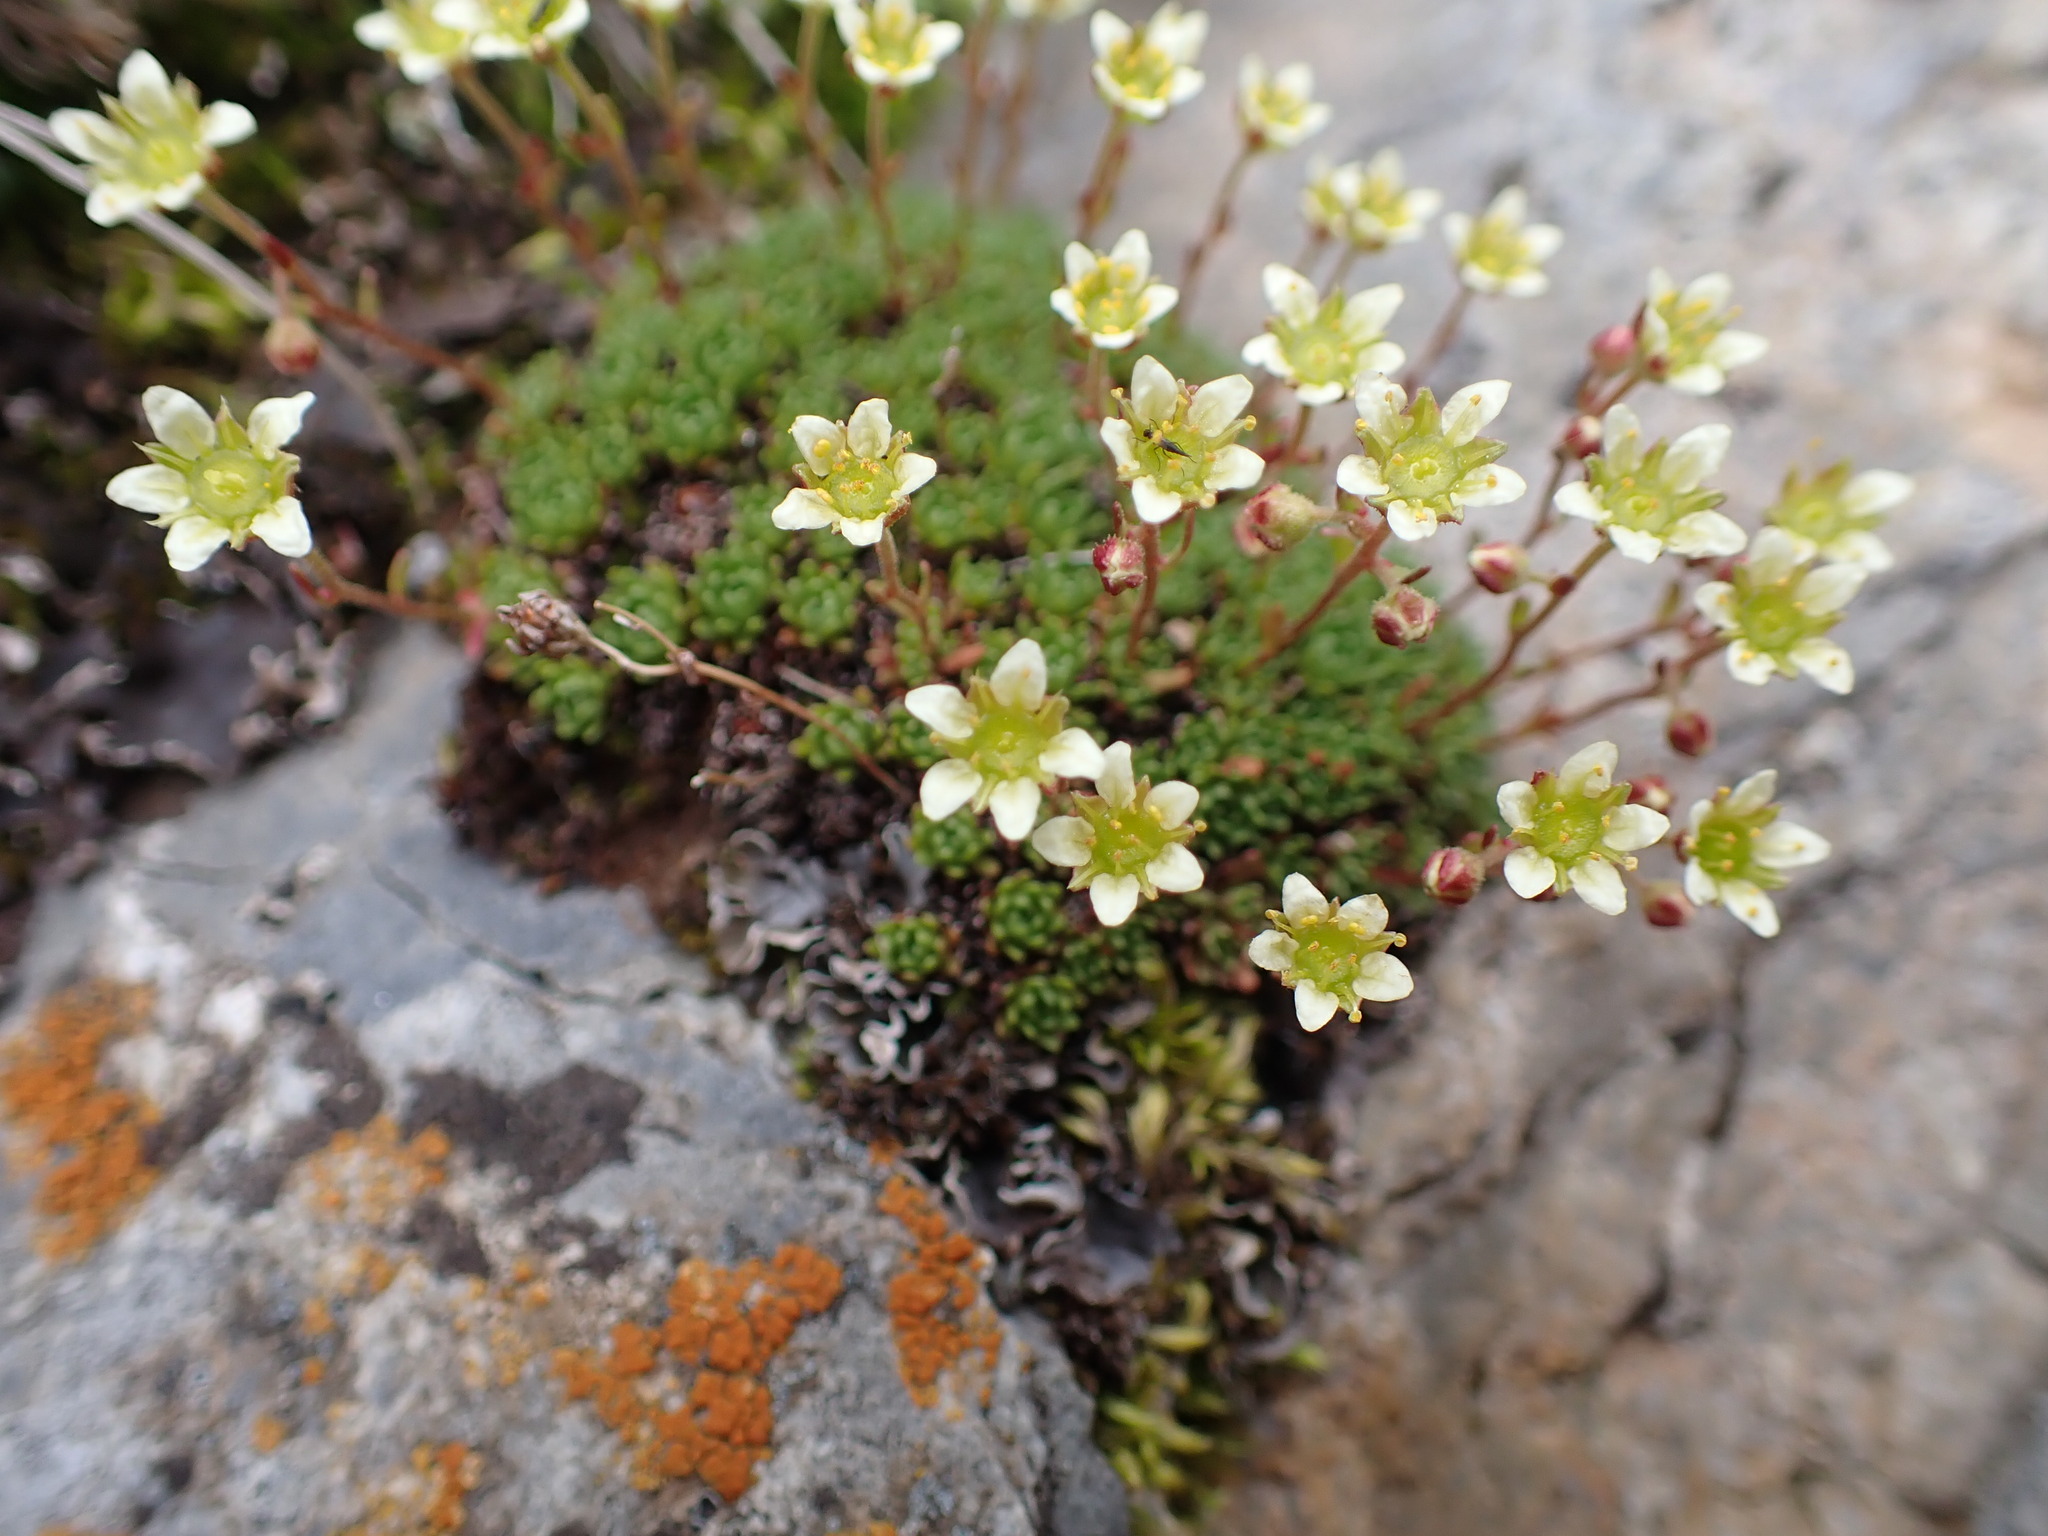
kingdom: Plantae
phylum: Tracheophyta
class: Magnoliopsida
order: Saxifragales
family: Saxifragaceae
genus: Saxifraga
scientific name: Saxifraga moschata
